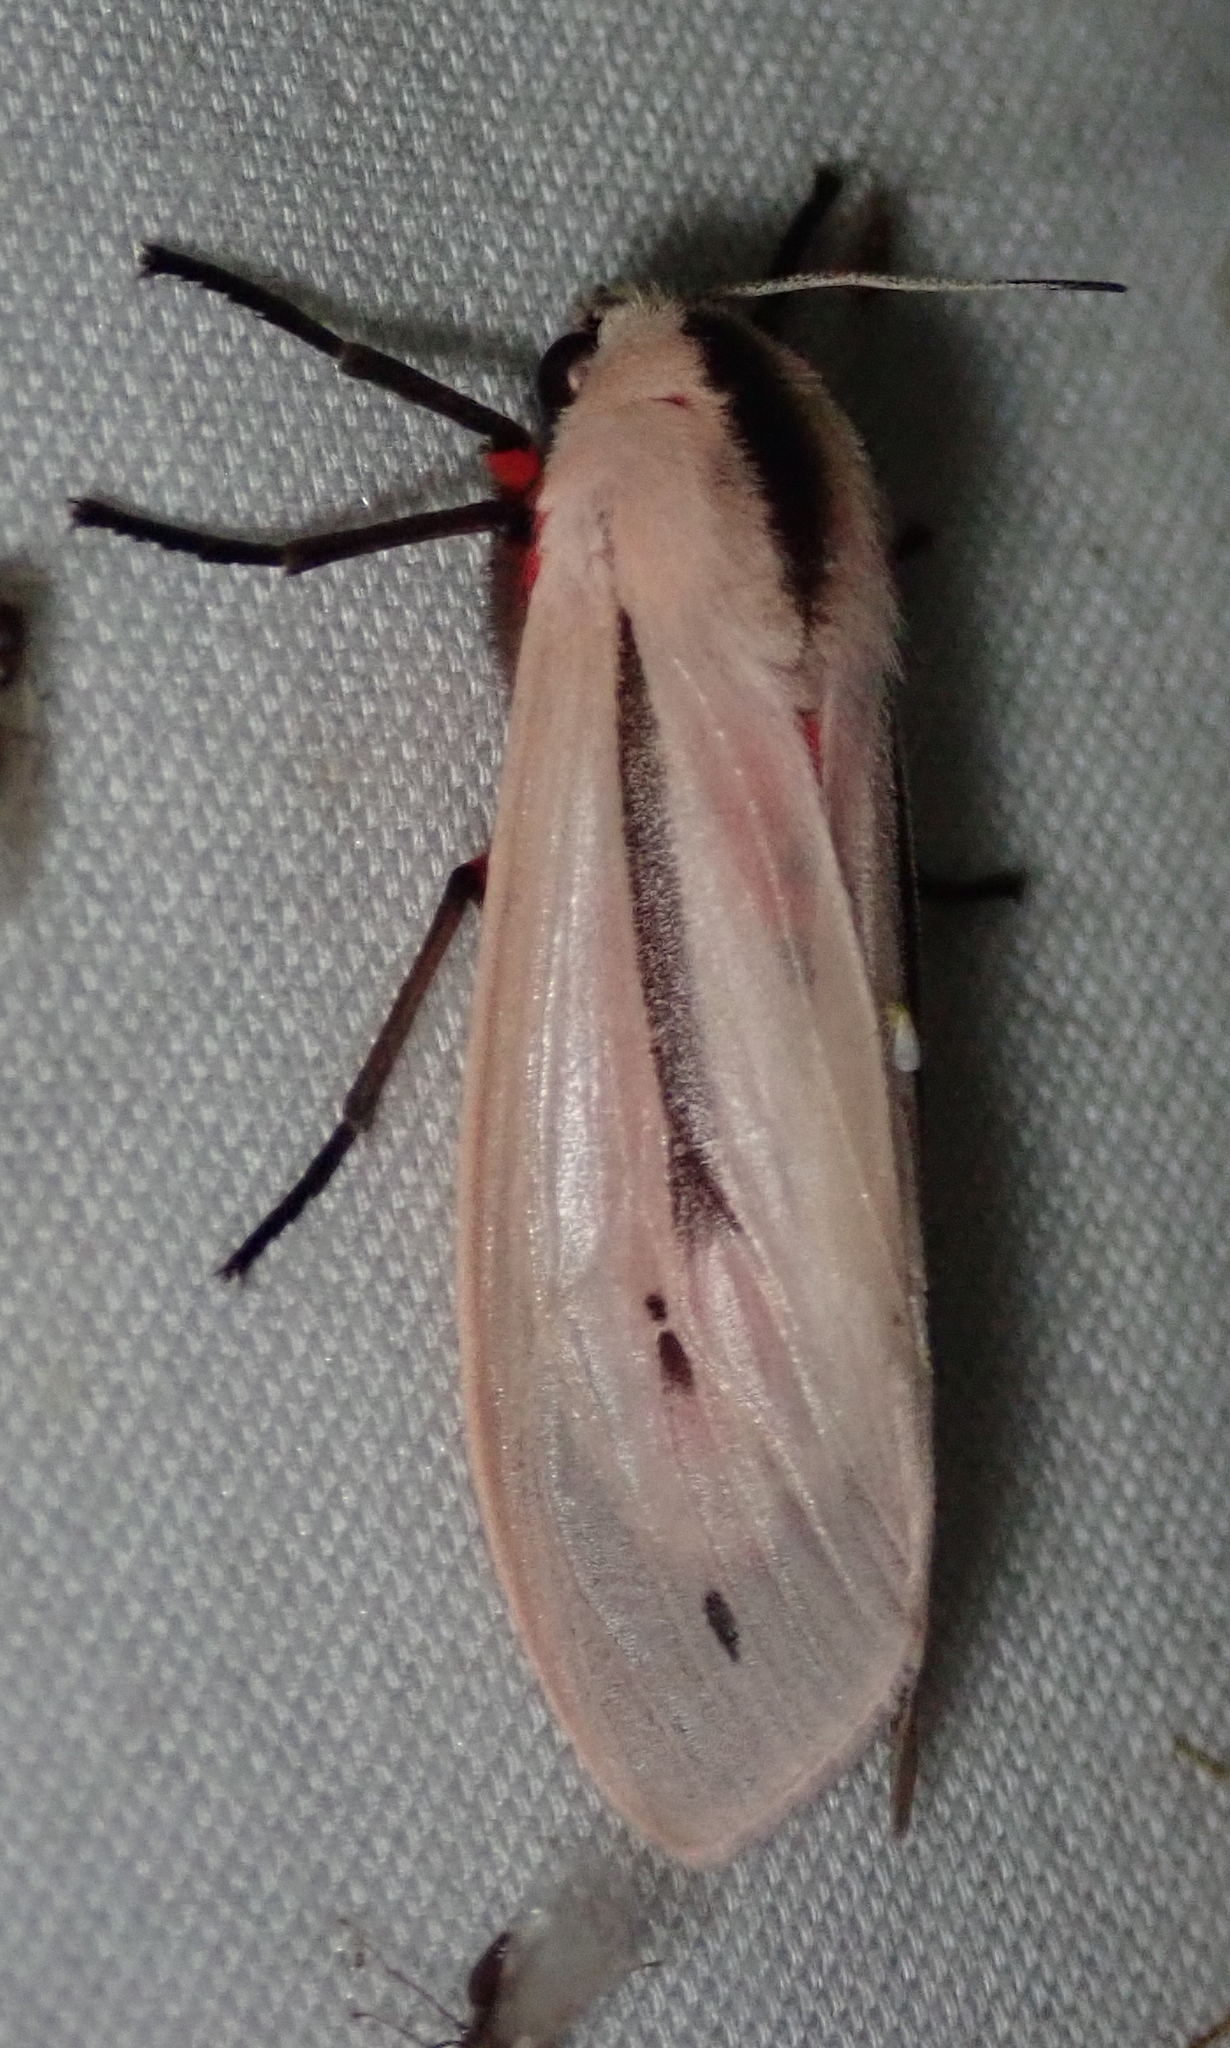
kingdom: Animalia
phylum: Arthropoda
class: Insecta
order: Lepidoptera
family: Erebidae
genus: Creatonotos
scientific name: Creatonotos leucanioides
